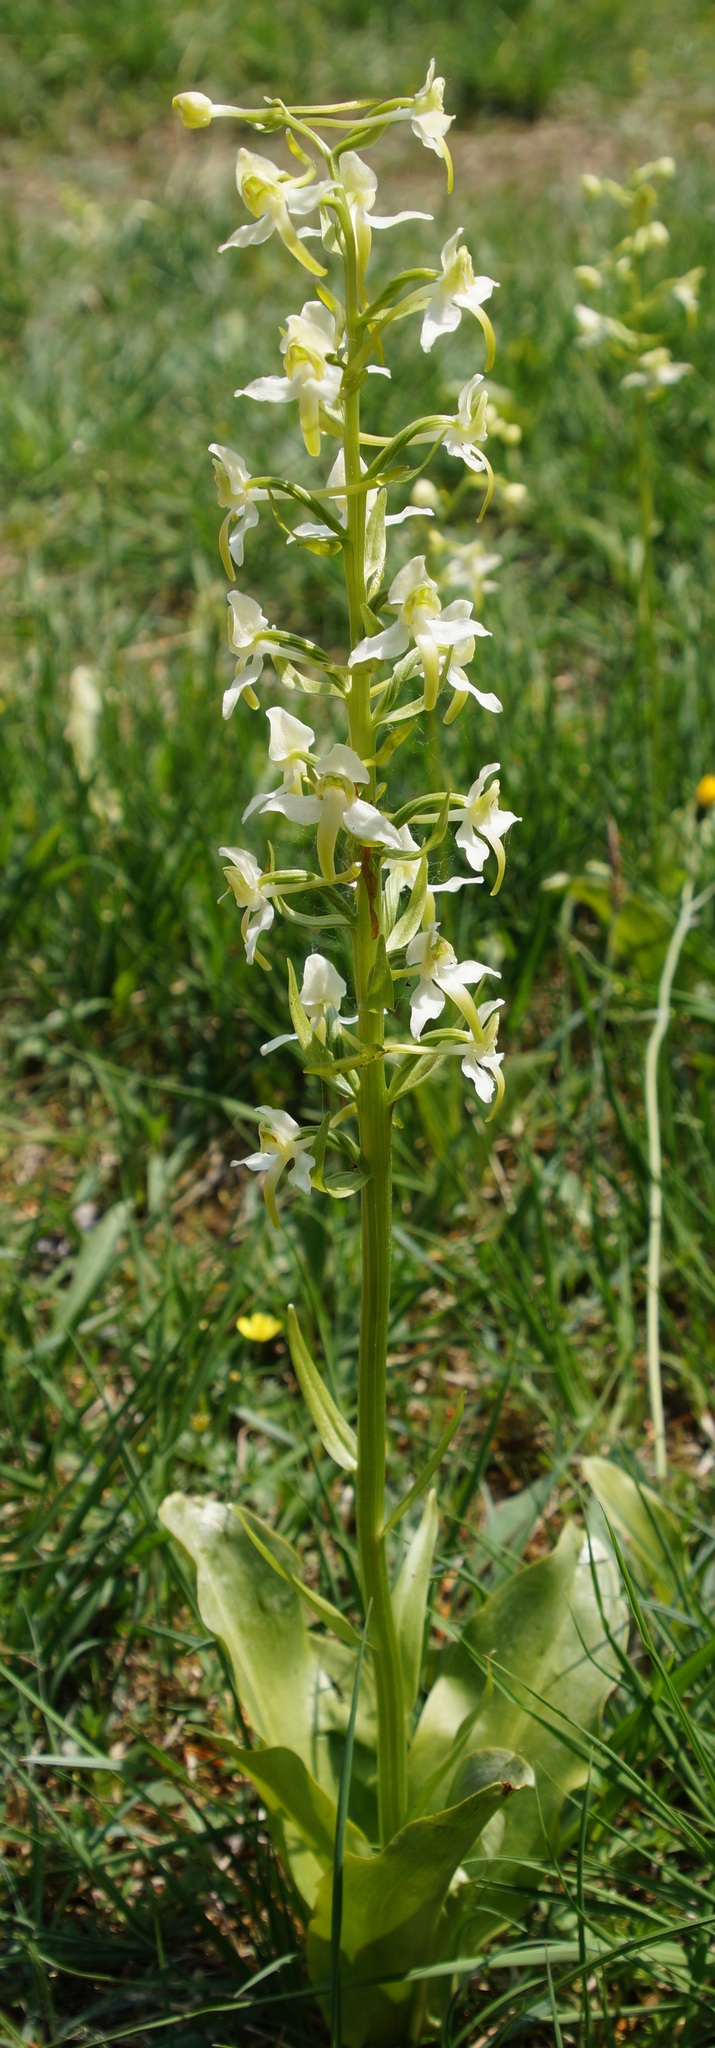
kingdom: Plantae
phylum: Tracheophyta
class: Liliopsida
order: Asparagales
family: Orchidaceae
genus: Platanthera
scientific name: Platanthera chlorantha
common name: Greater butterfly-orchid
